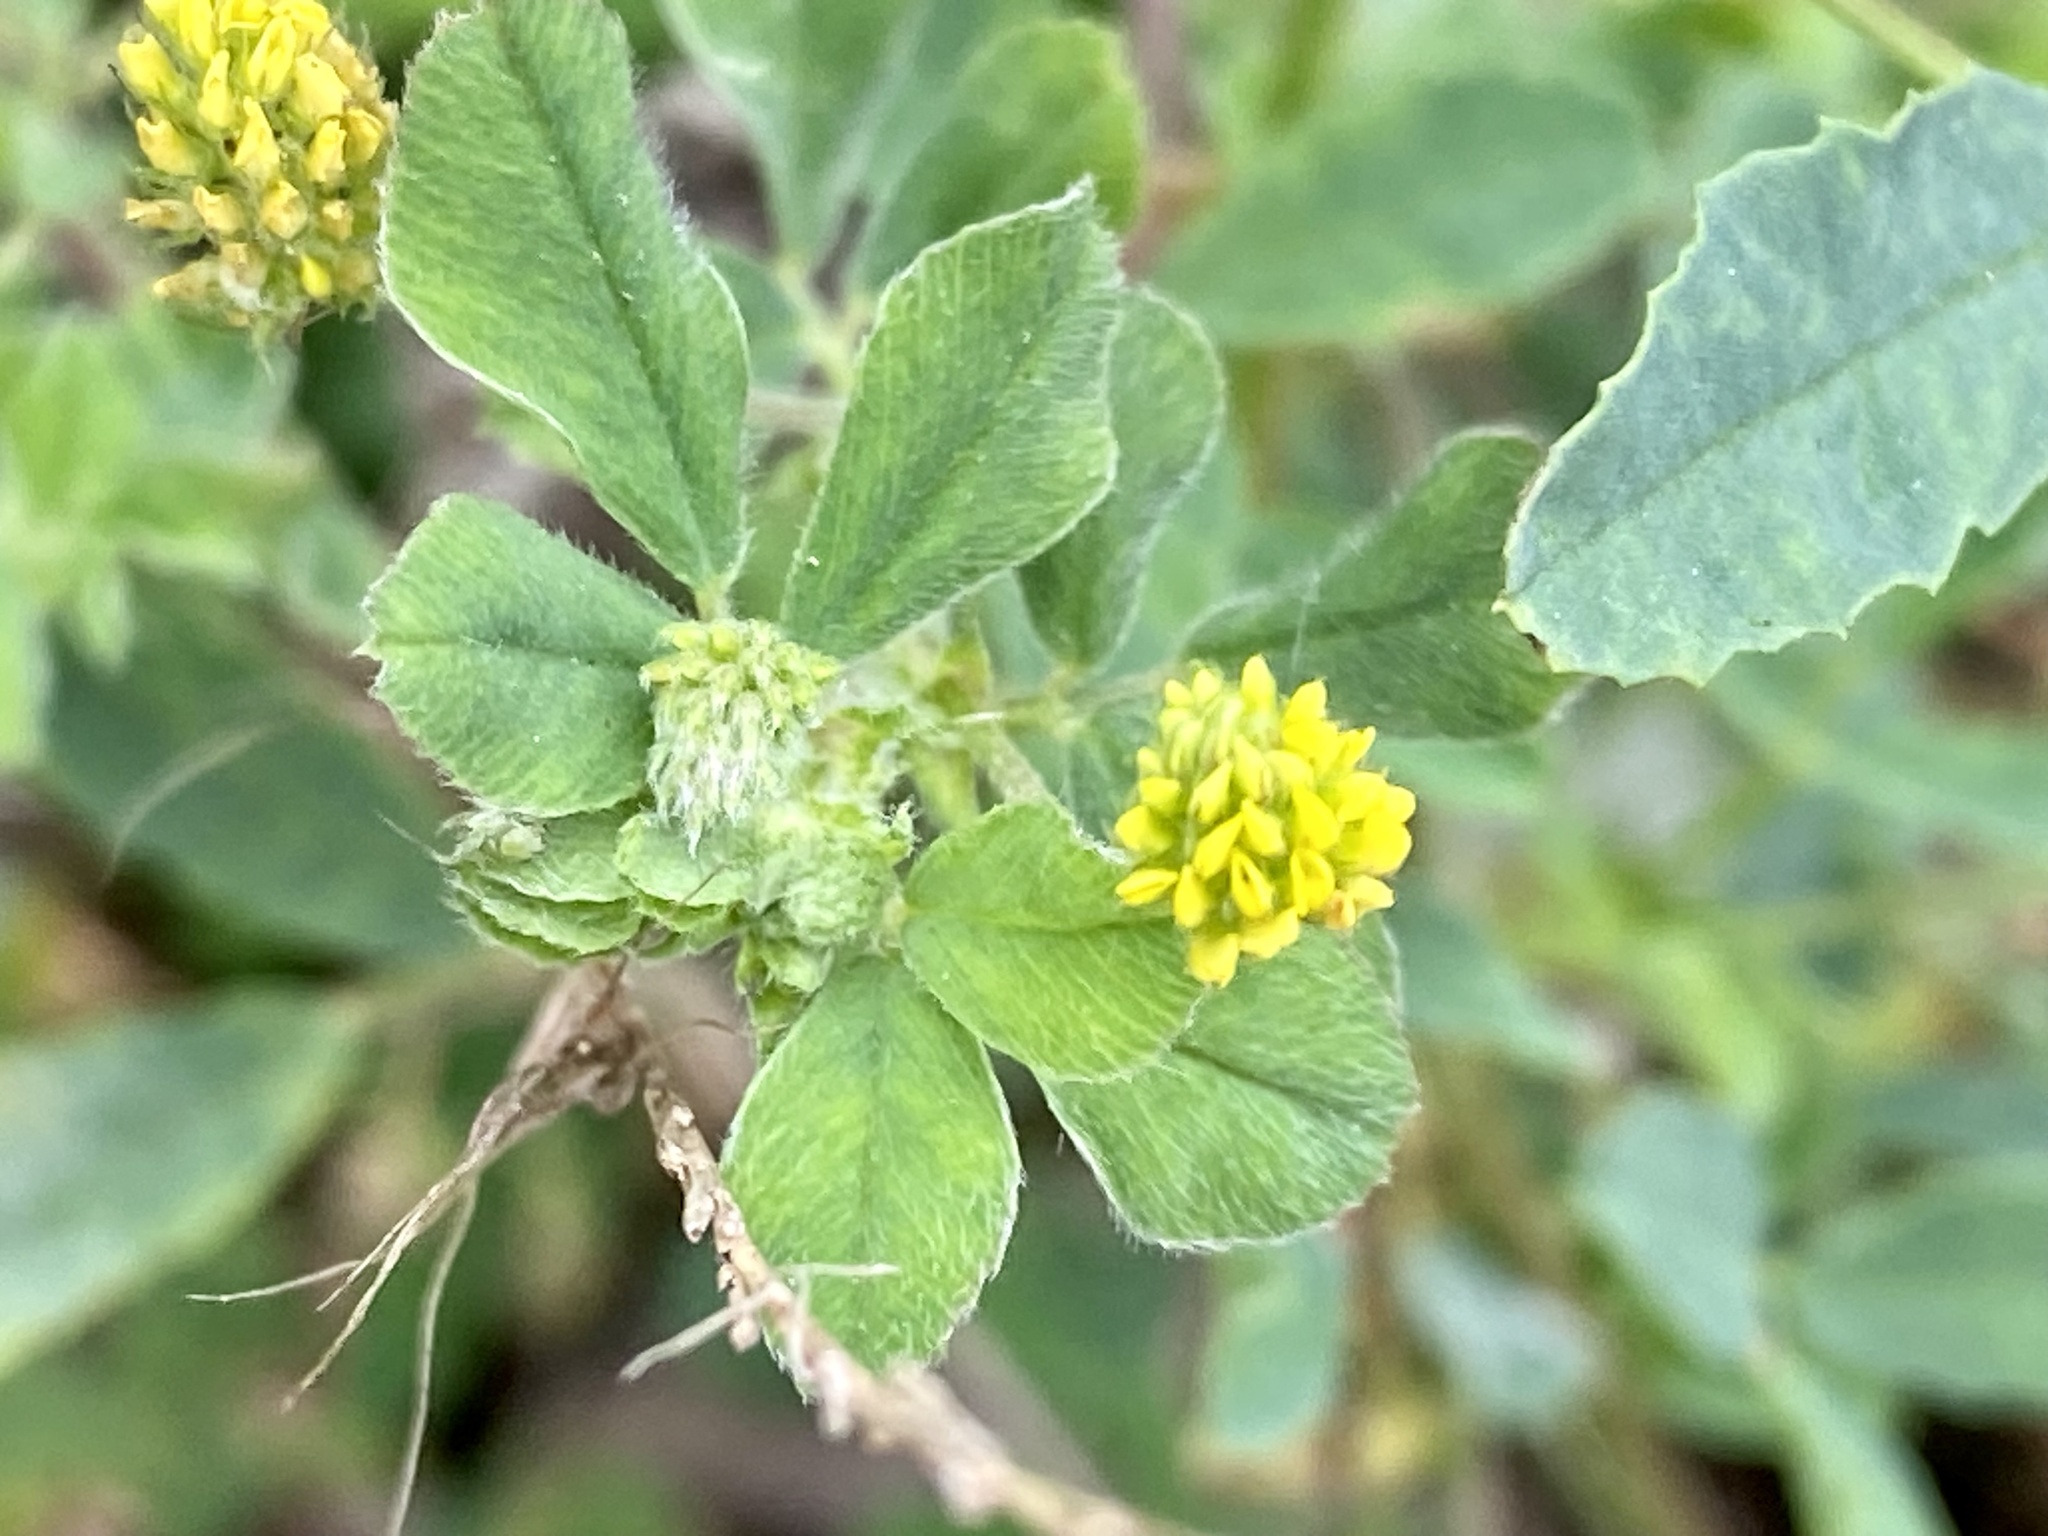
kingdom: Plantae
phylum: Tracheophyta
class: Magnoliopsida
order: Fabales
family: Fabaceae
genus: Medicago
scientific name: Medicago lupulina
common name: Black medick
